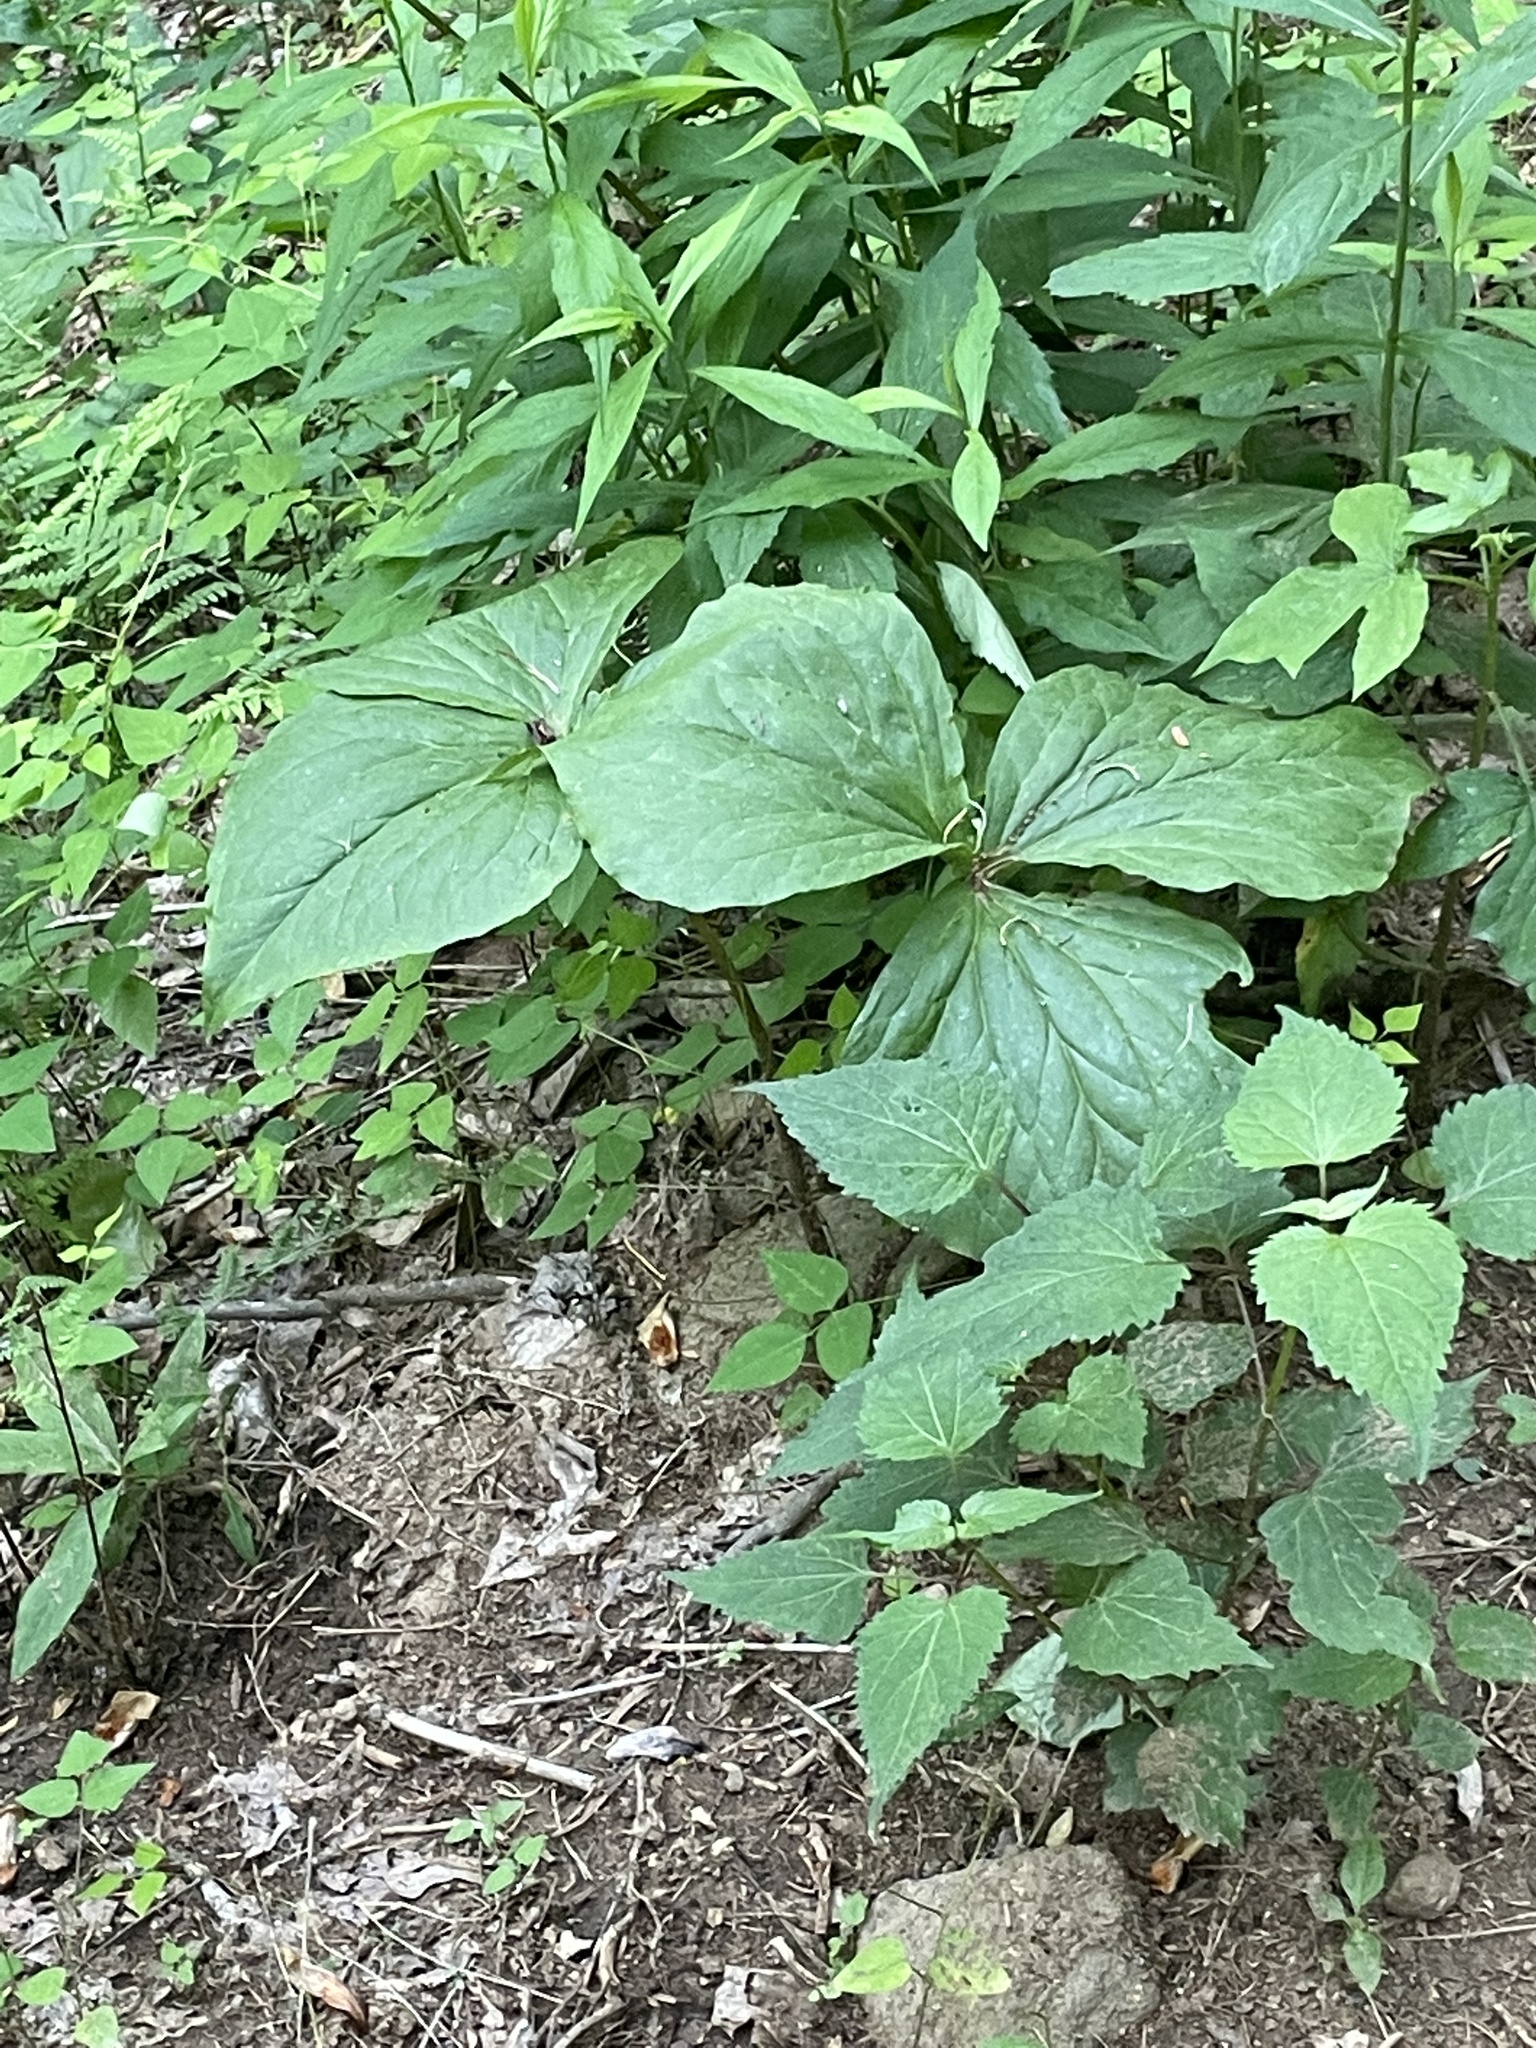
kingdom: Plantae
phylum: Tracheophyta
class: Liliopsida
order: Liliales
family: Melanthiaceae
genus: Trillium
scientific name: Trillium vaseyi
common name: Sweet trillium
